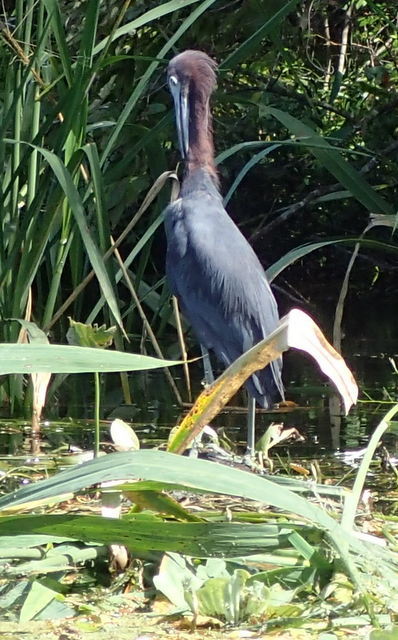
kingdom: Animalia
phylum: Chordata
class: Aves
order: Pelecaniformes
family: Ardeidae
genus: Egretta
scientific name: Egretta caerulea
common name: Little blue heron
